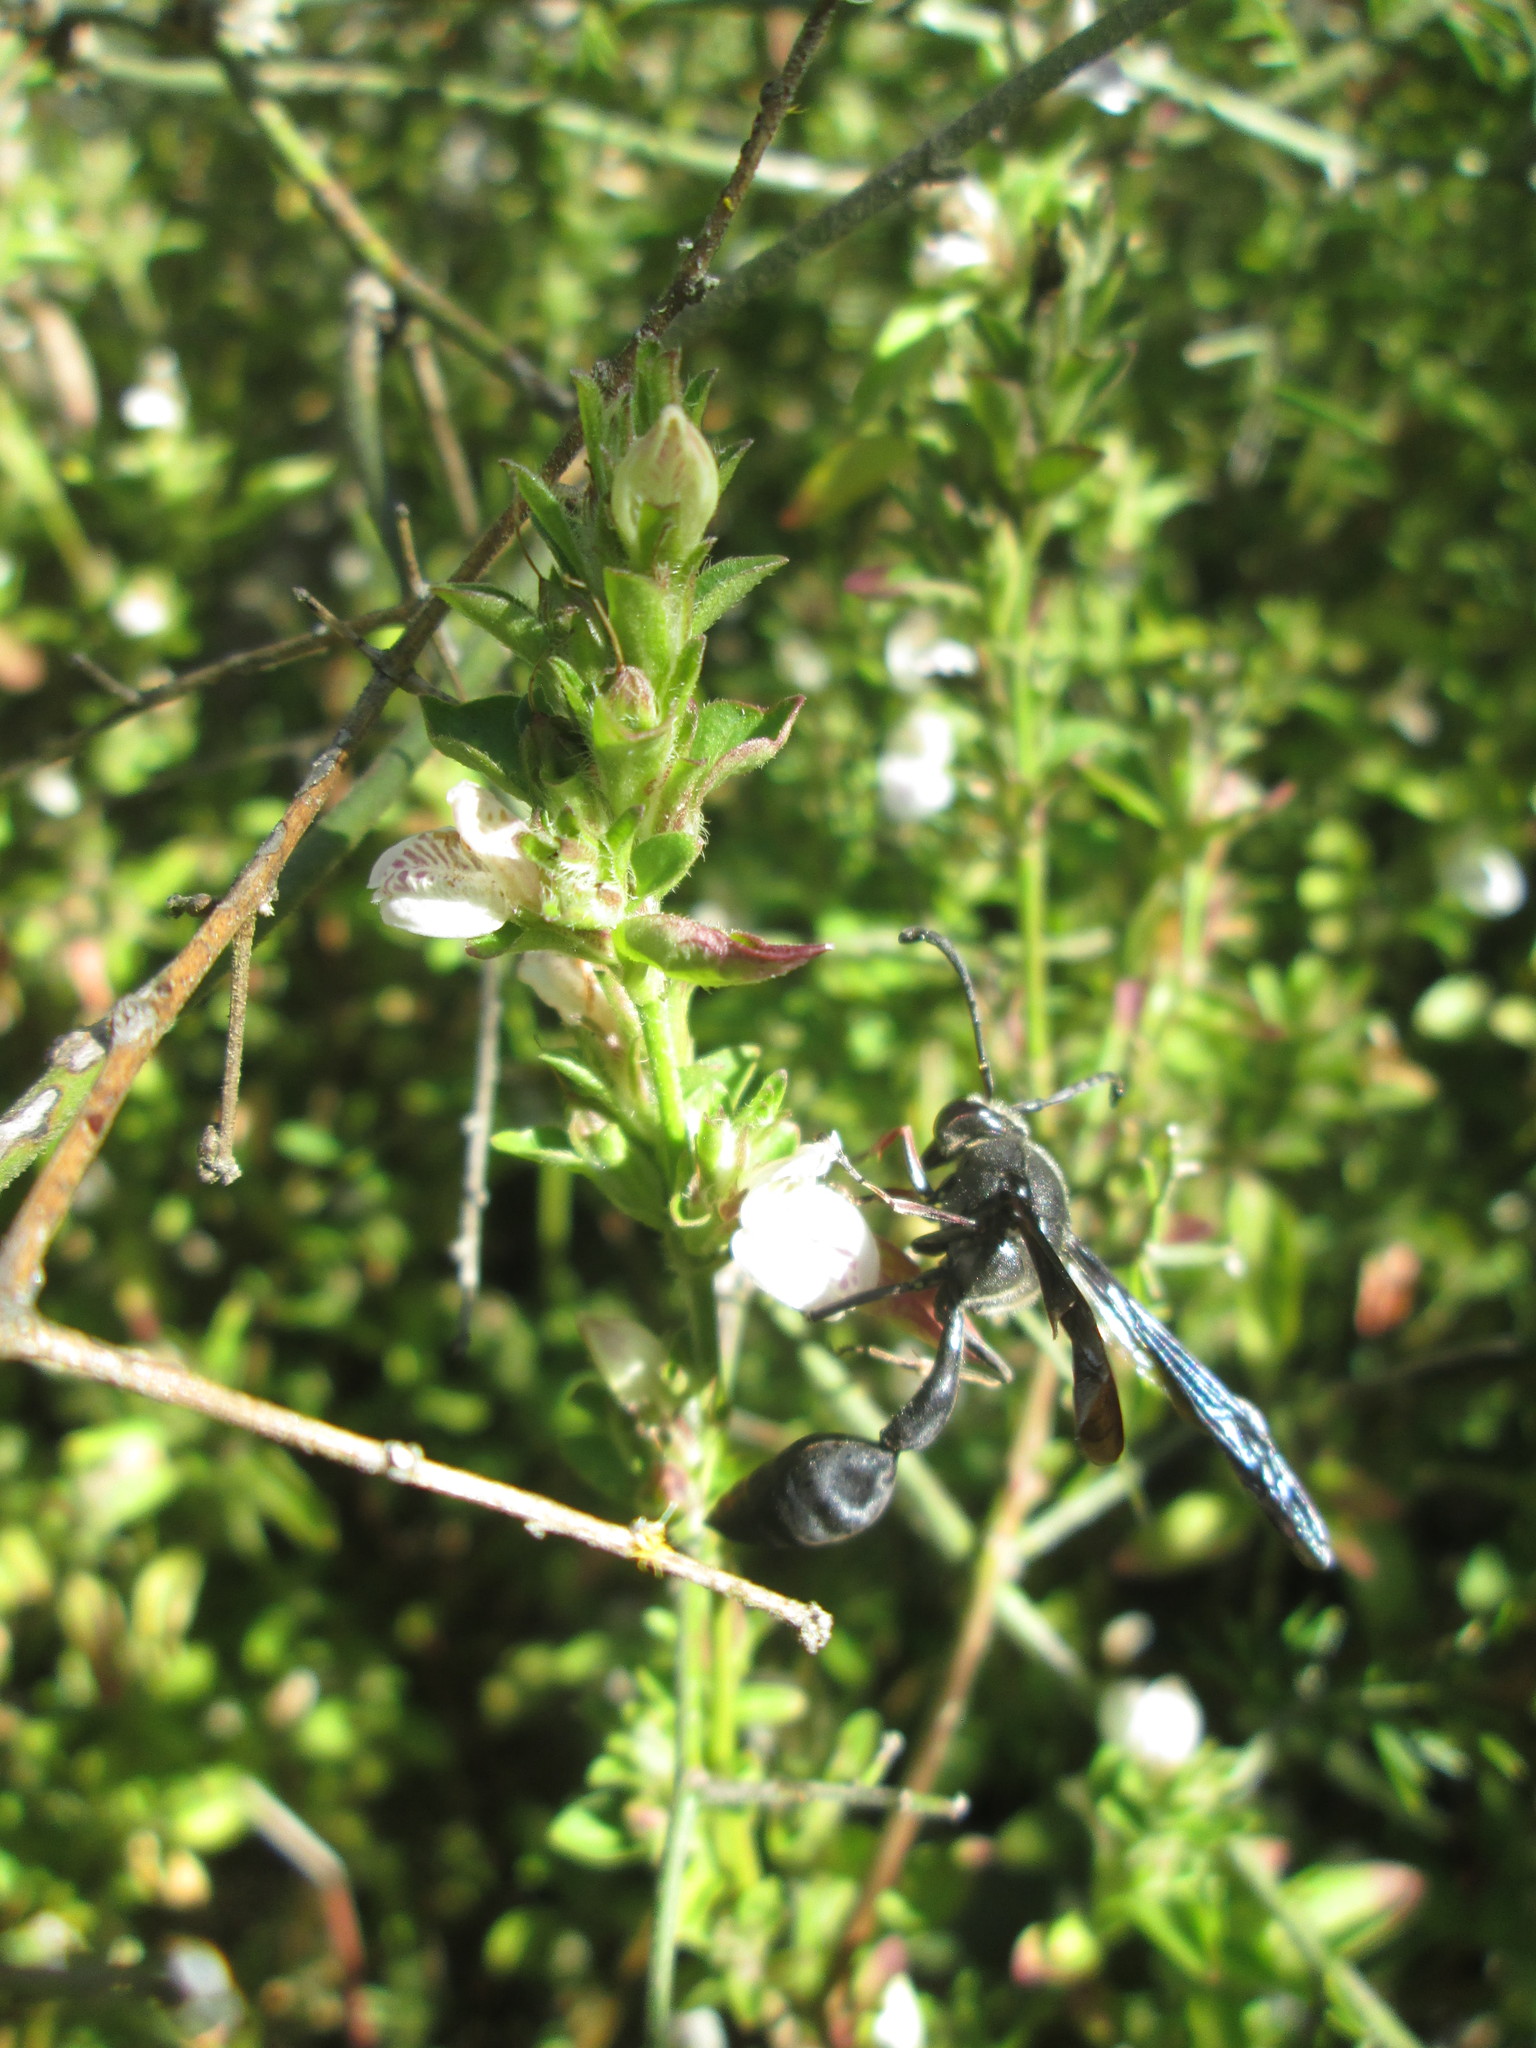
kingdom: Animalia
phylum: Arthropoda
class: Insecta
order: Hymenoptera
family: Eumenidae
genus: Delta
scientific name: Delta bonellii
